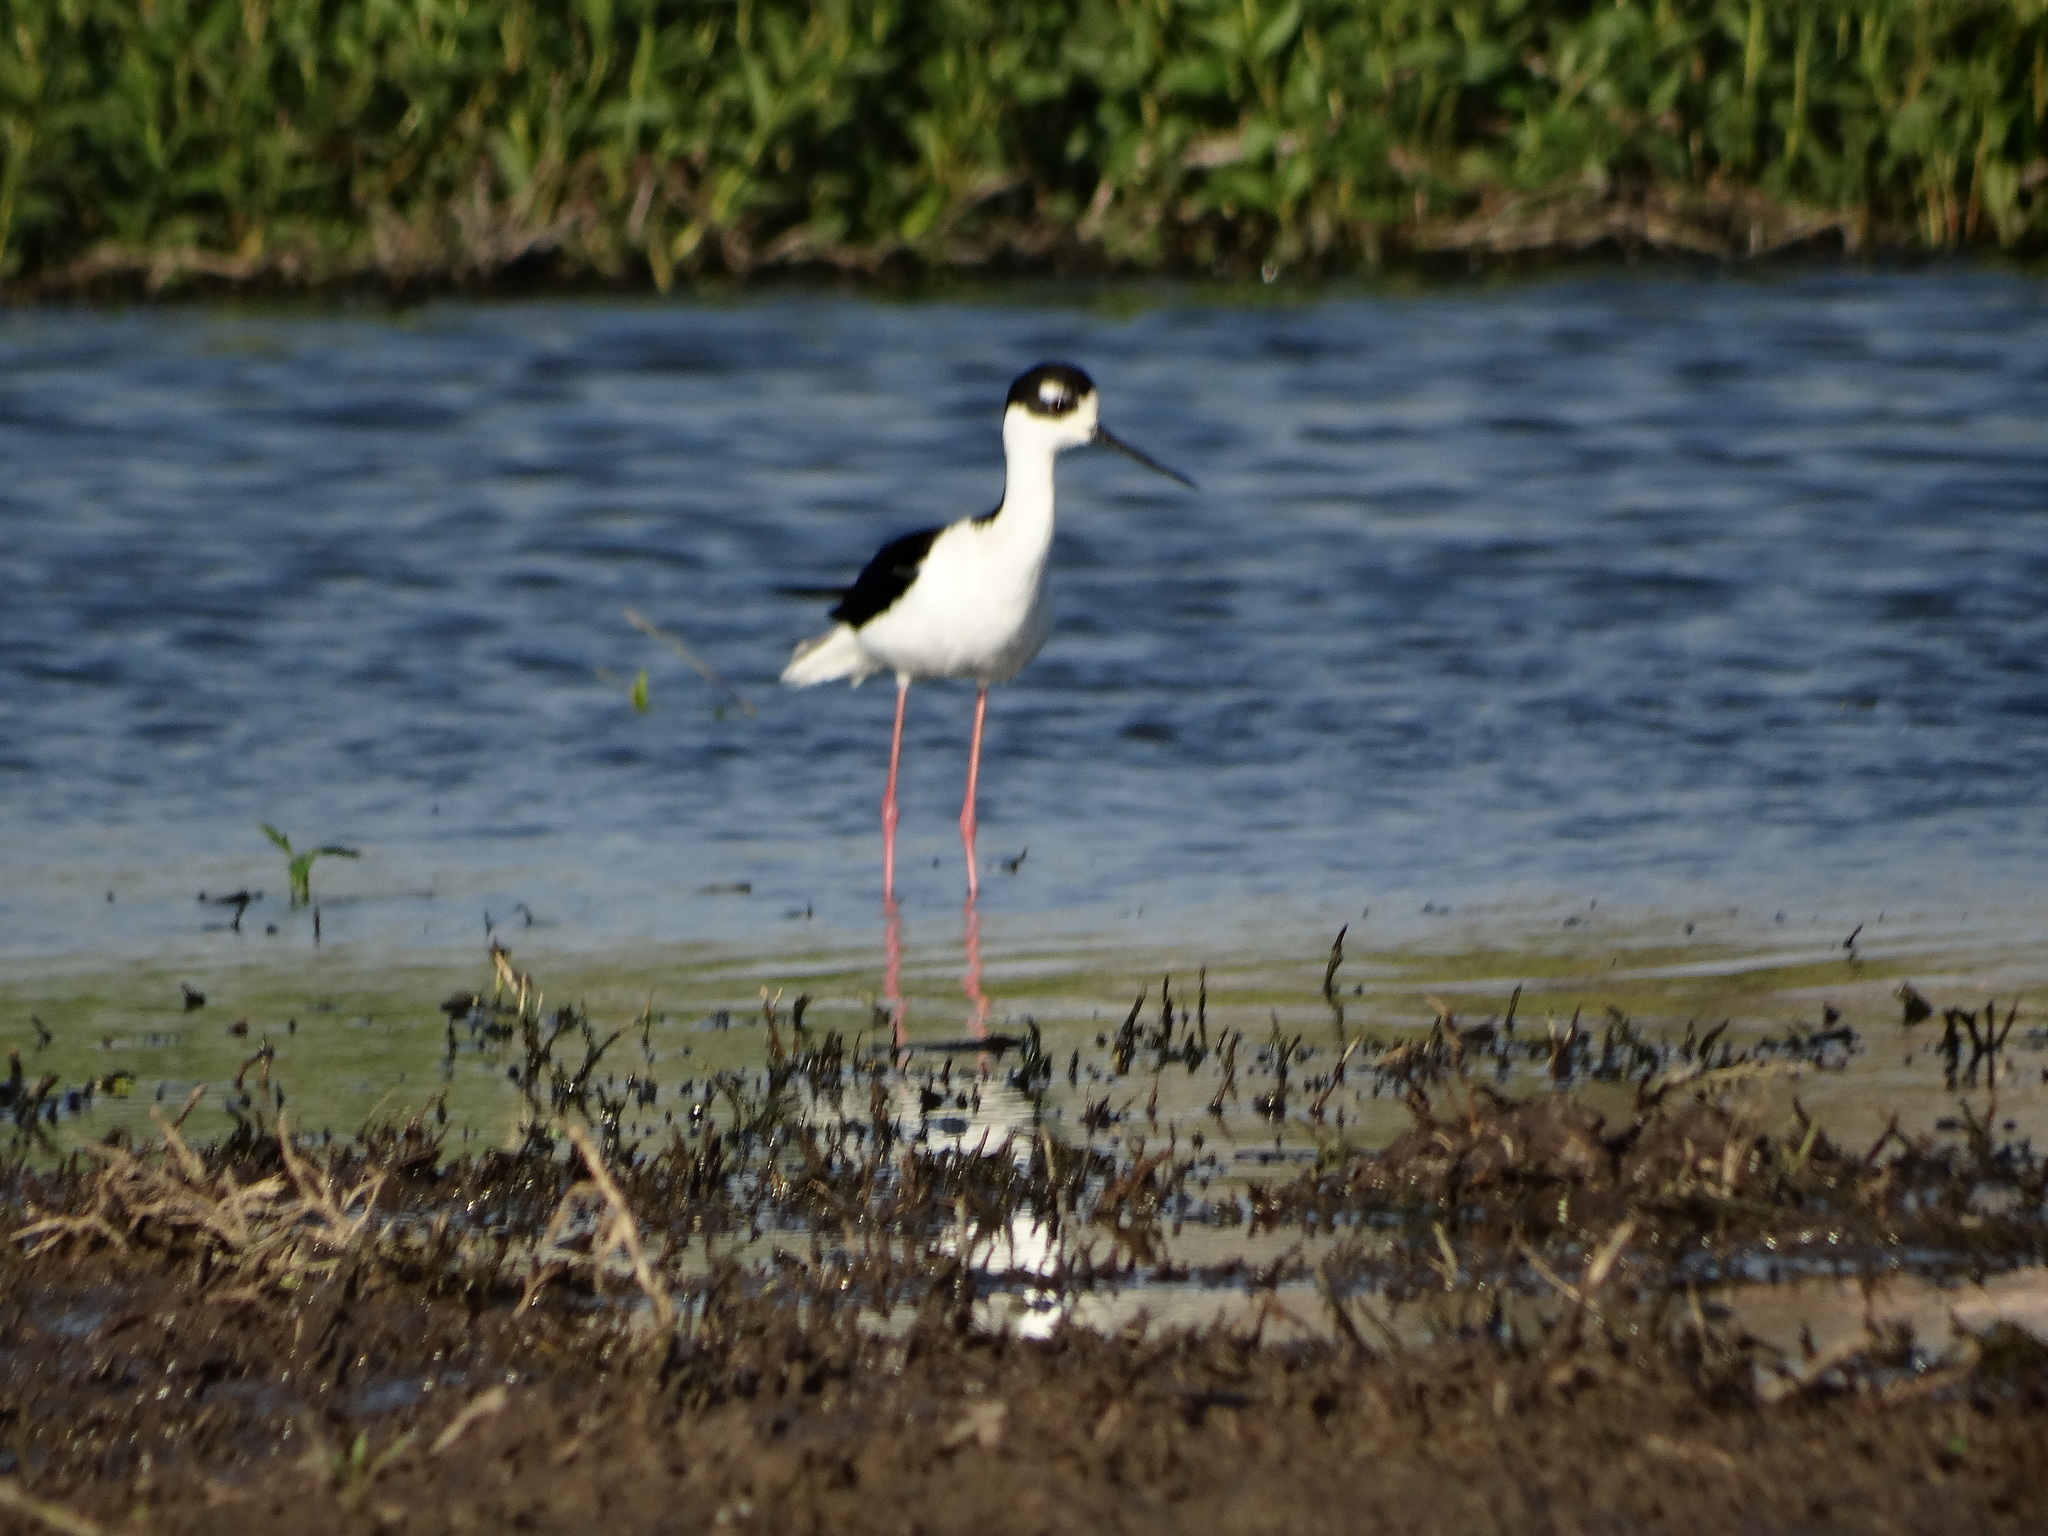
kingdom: Animalia
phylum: Chordata
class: Aves
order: Charadriiformes
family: Recurvirostridae
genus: Himantopus
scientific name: Himantopus mexicanus
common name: Black-necked stilt
